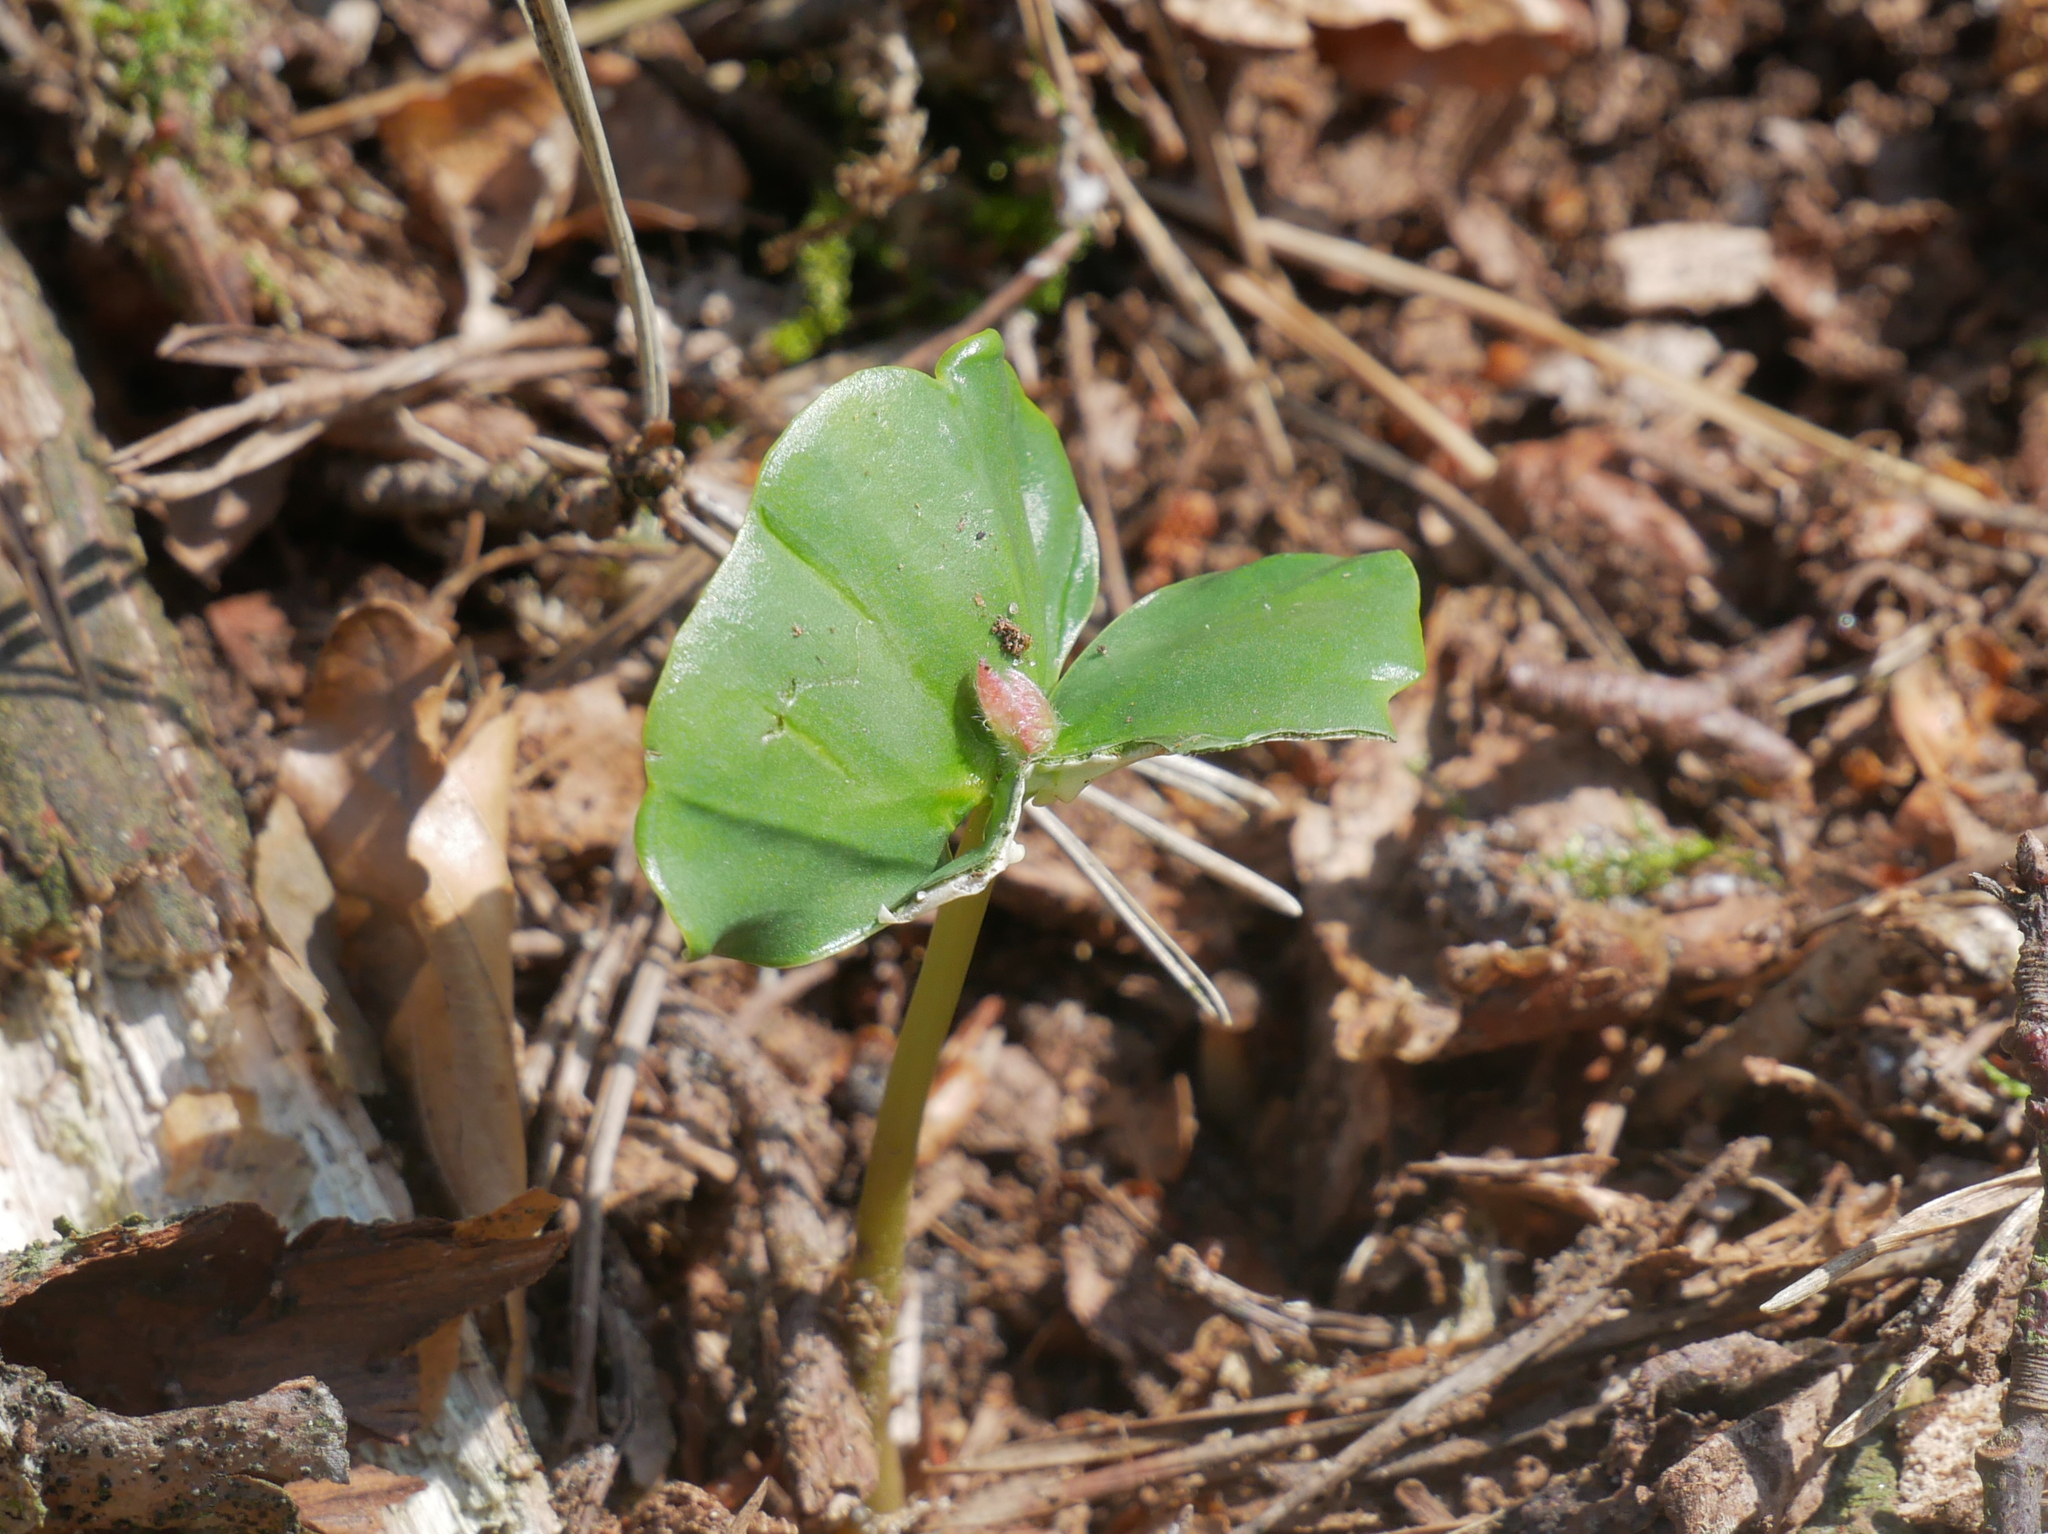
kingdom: Plantae
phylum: Tracheophyta
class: Magnoliopsida
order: Fagales
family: Fagaceae
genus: Fagus
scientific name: Fagus sylvatica
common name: Beech
